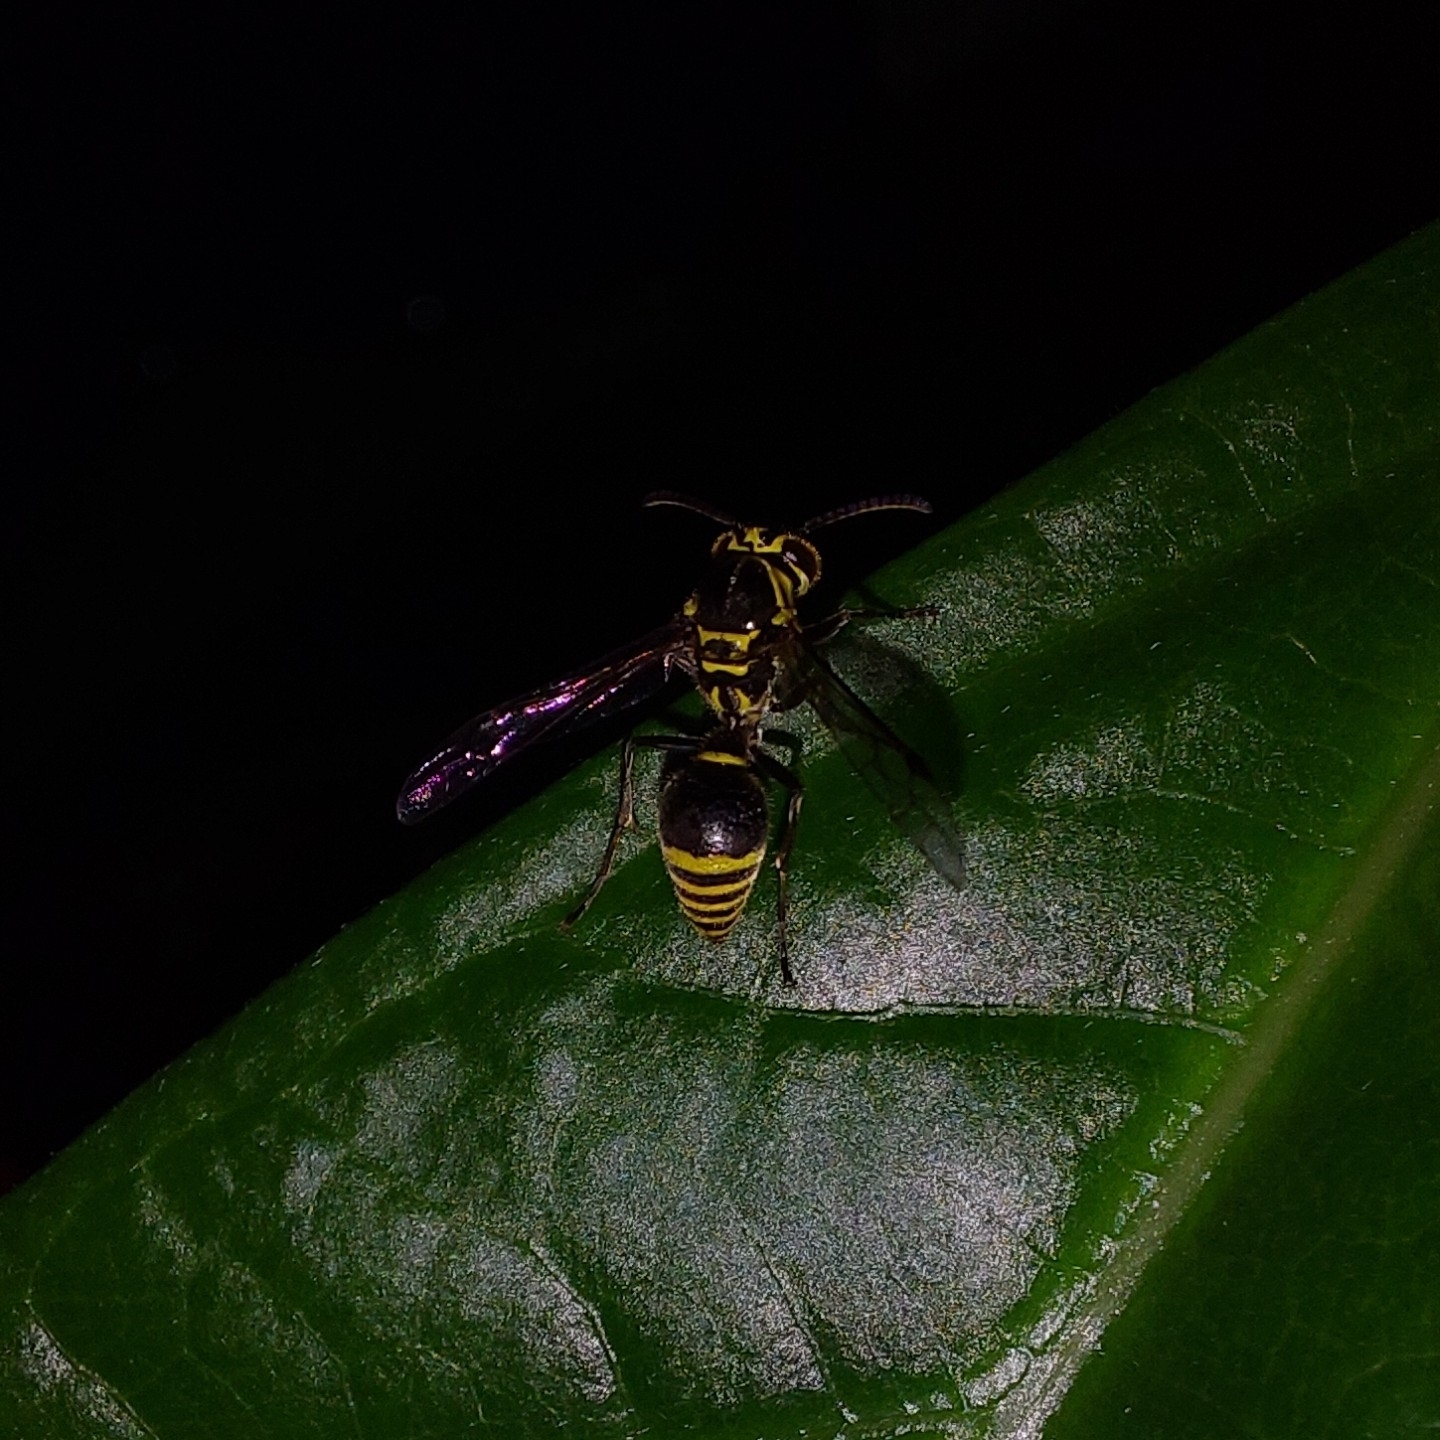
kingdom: Animalia
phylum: Arthropoda
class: Insecta
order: Hymenoptera
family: Vespidae
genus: Protonectarina
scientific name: Protonectarina sylveirae
